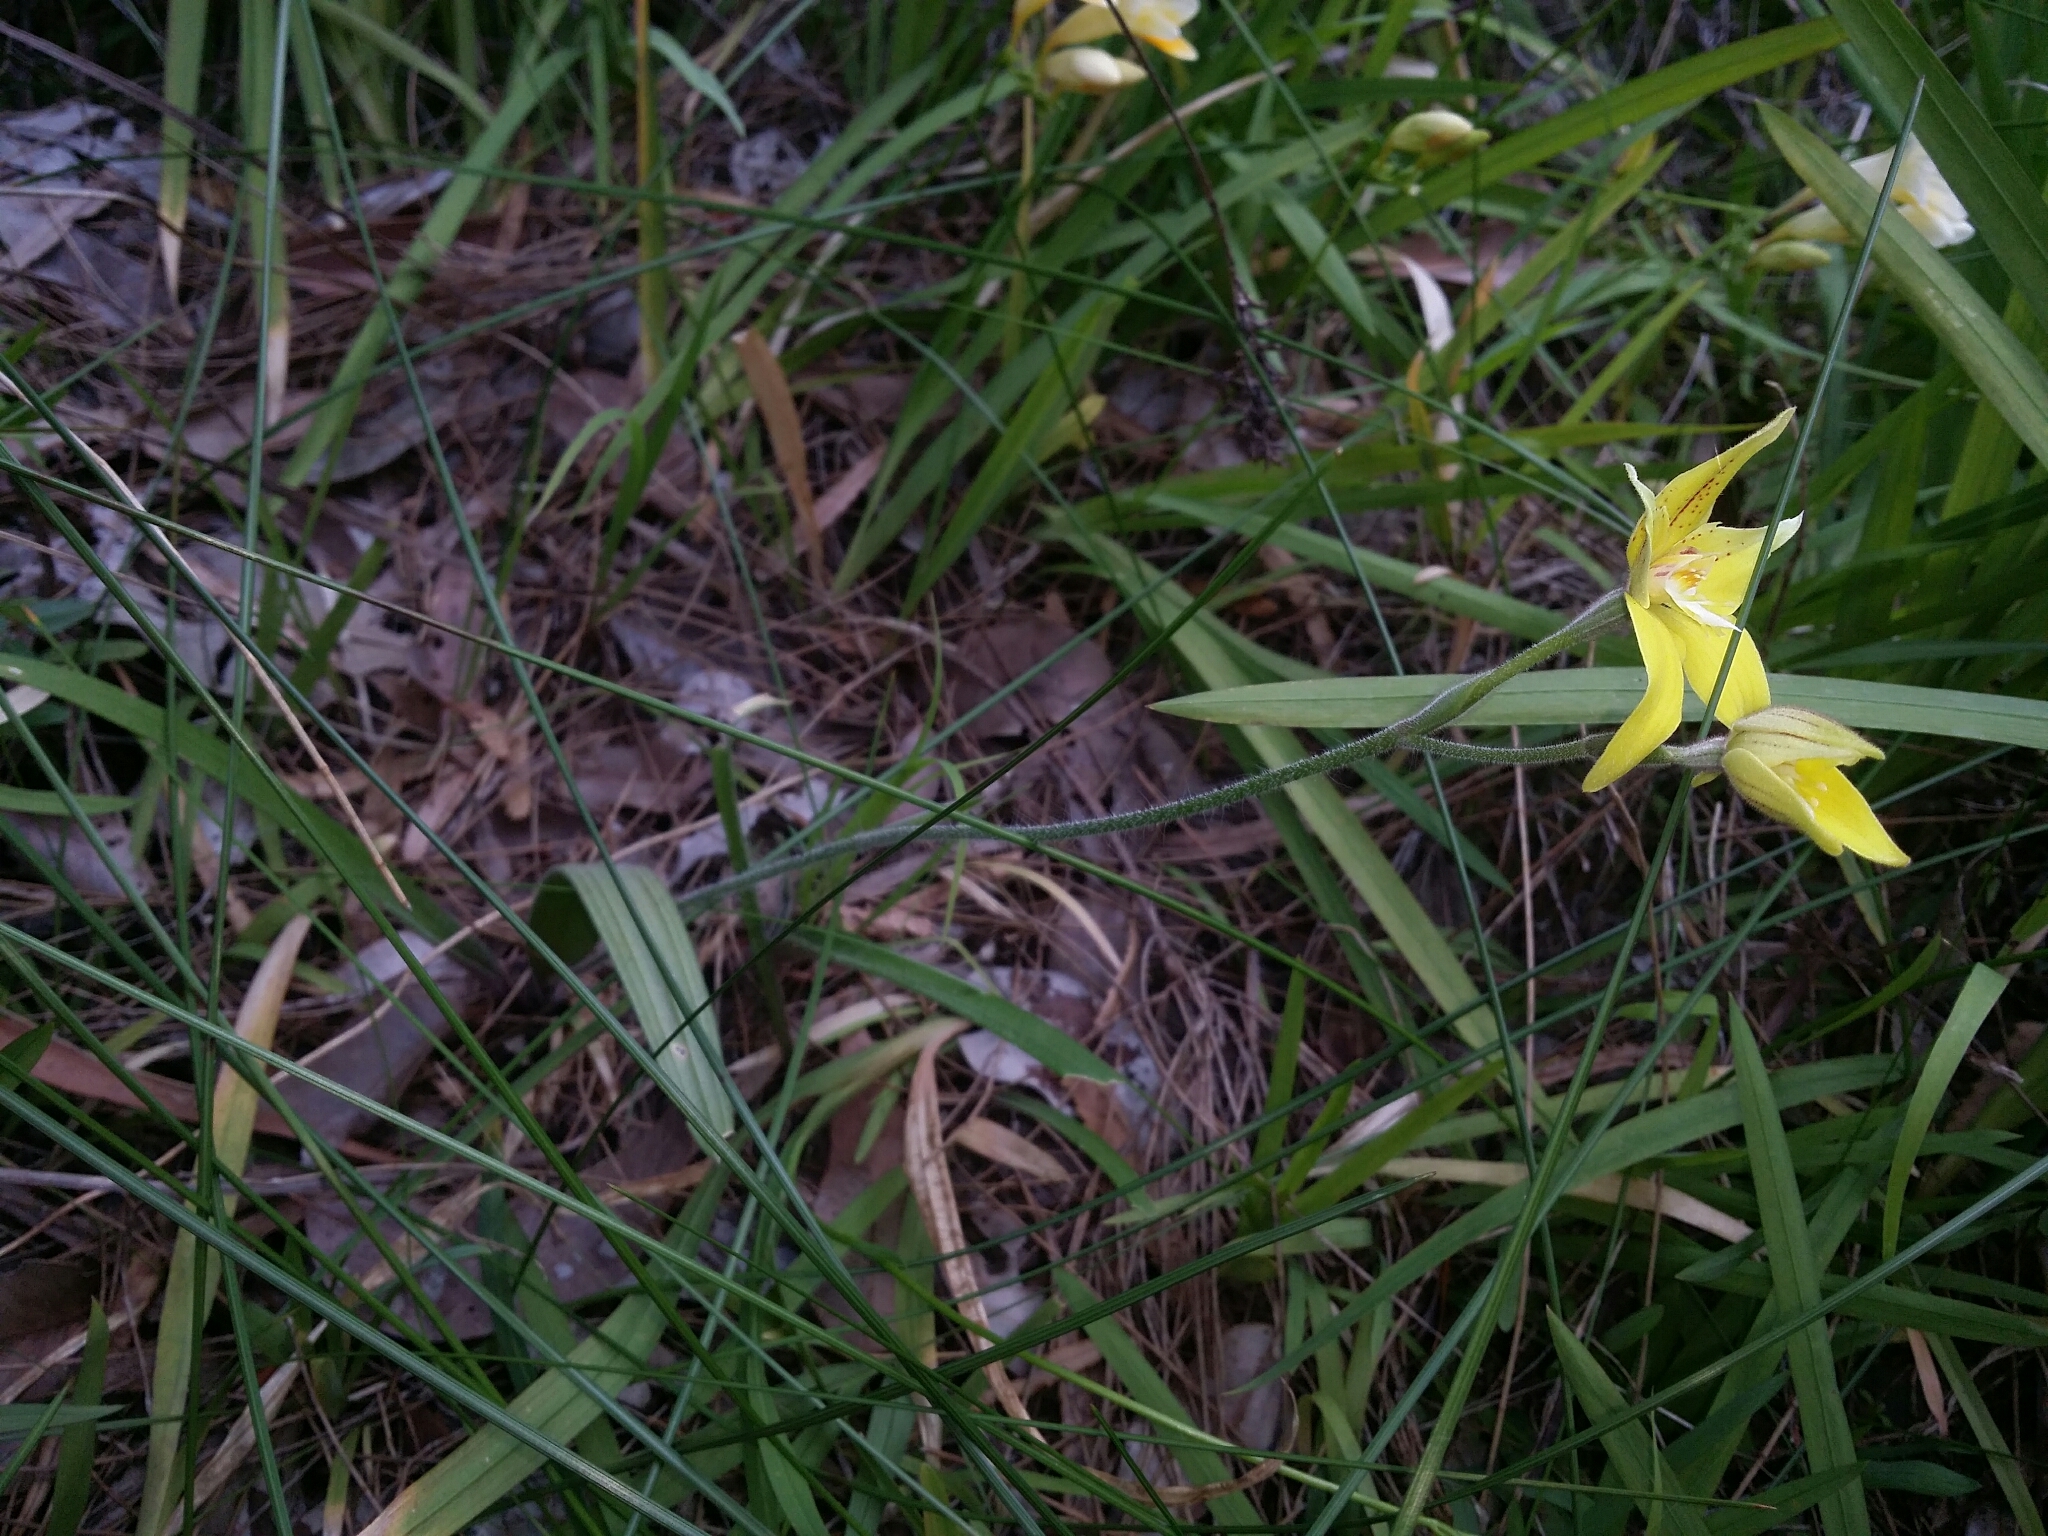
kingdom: Plantae
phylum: Tracheophyta
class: Liliopsida
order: Asparagales
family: Orchidaceae
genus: Caladenia
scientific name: Caladenia flava
